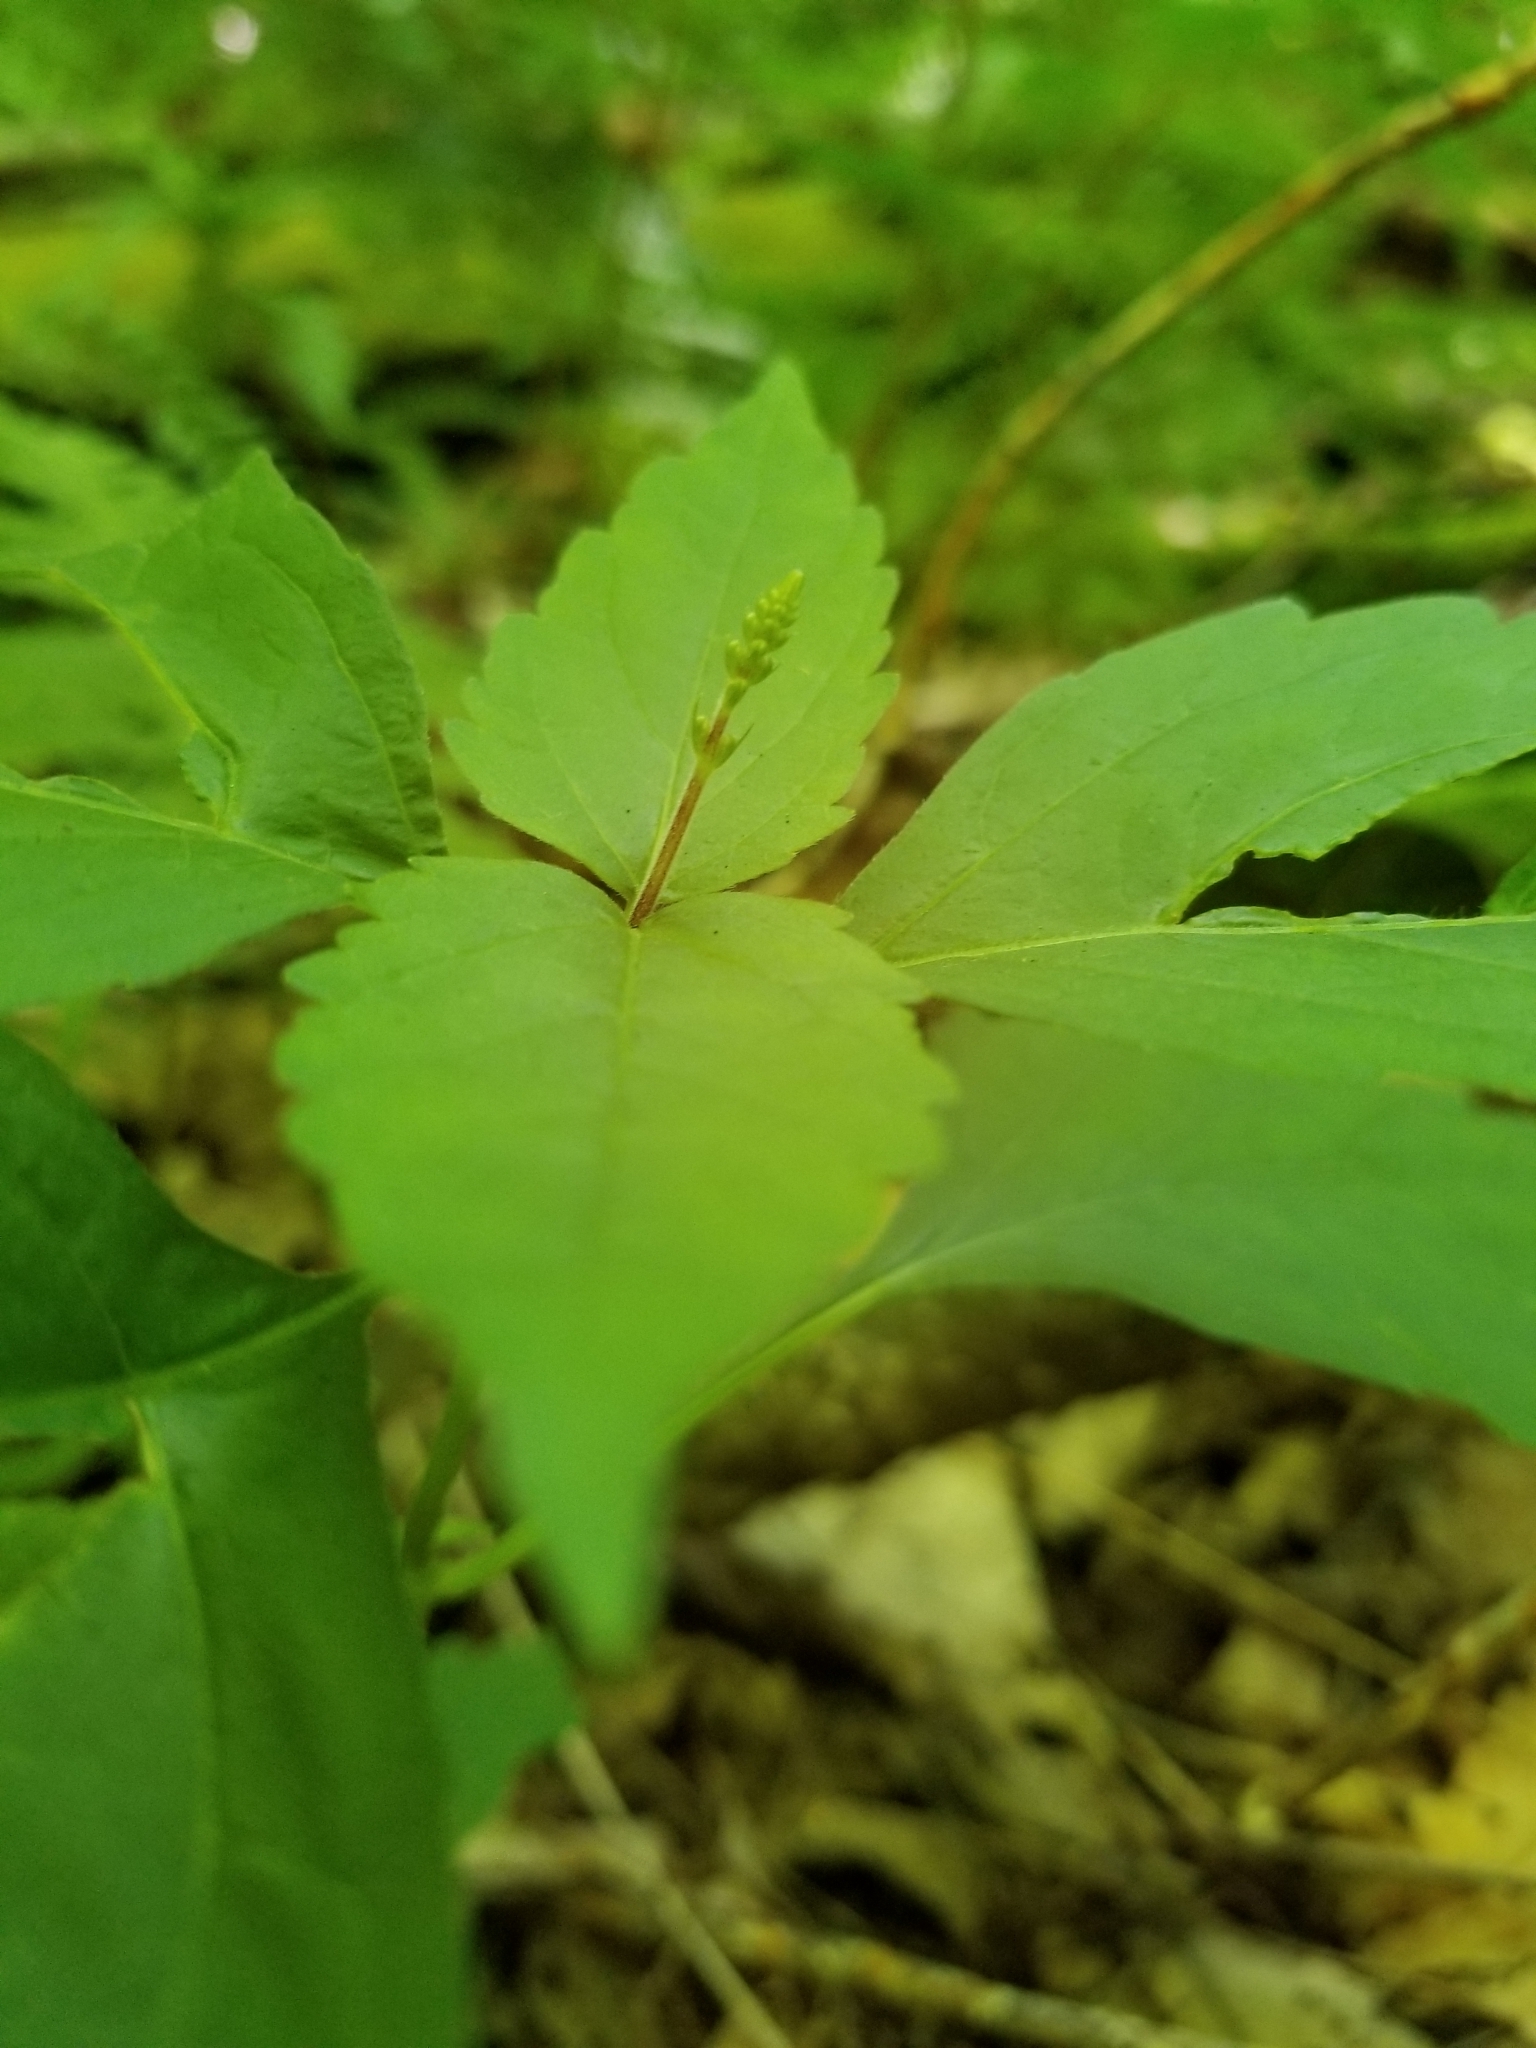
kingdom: Plantae
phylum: Tracheophyta
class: Magnoliopsida
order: Lamiales
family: Phrymaceae
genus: Phryma
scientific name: Phryma leptostachya
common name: American lopseed
